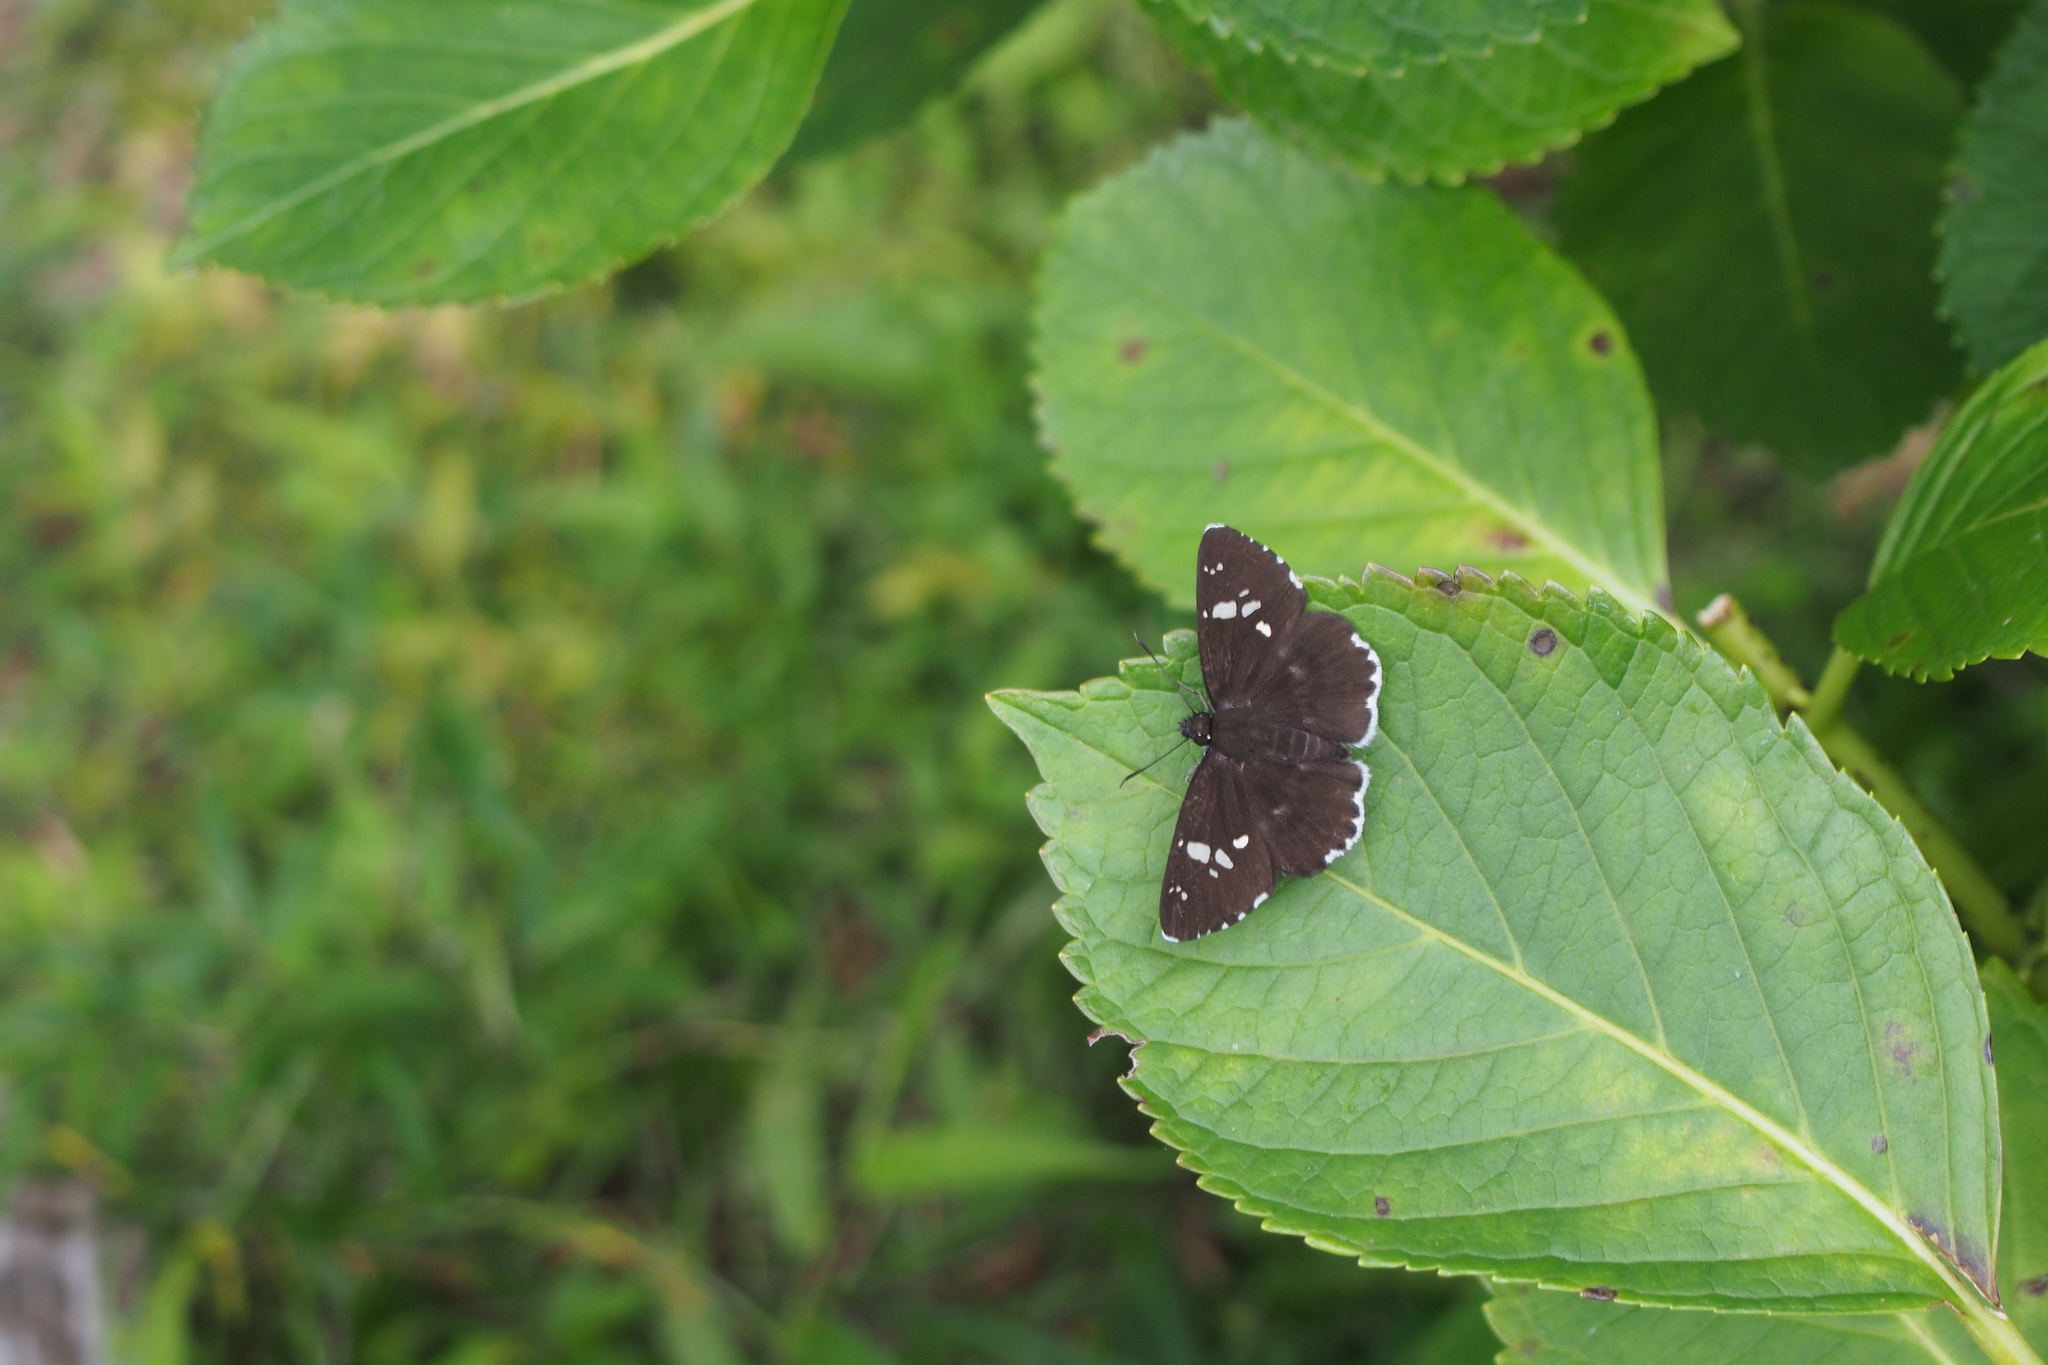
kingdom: Animalia
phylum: Arthropoda
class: Insecta
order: Lepidoptera
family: Hesperiidae
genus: Daimio
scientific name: Daimio tethys
